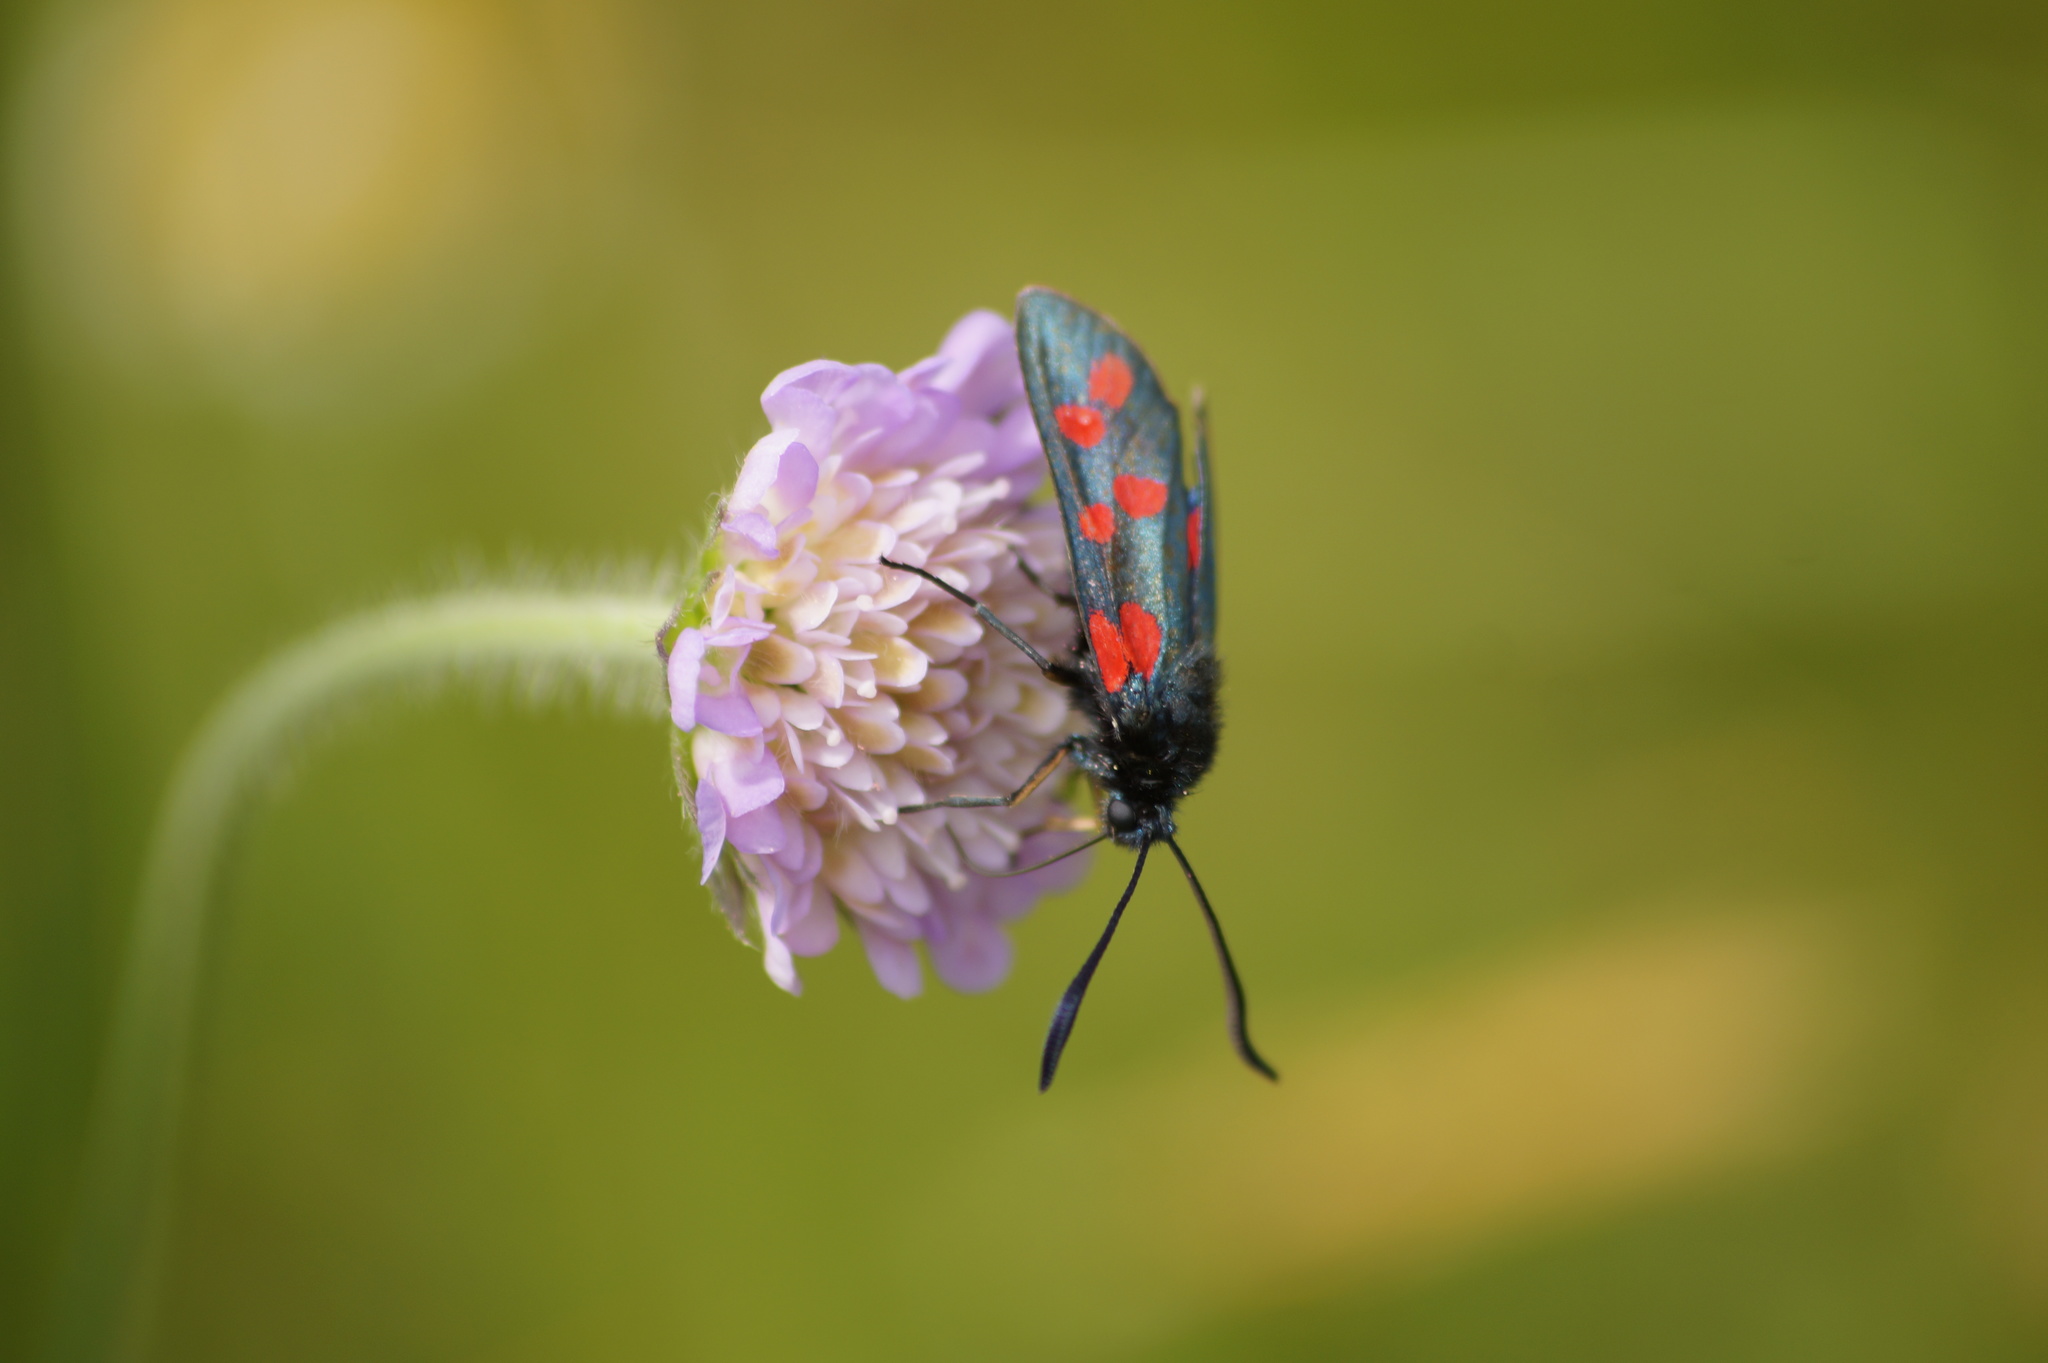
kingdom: Animalia
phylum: Arthropoda
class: Insecta
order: Lepidoptera
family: Zygaenidae
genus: Zygaena
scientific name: Zygaena filipendulae
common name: Six-spot burnet
